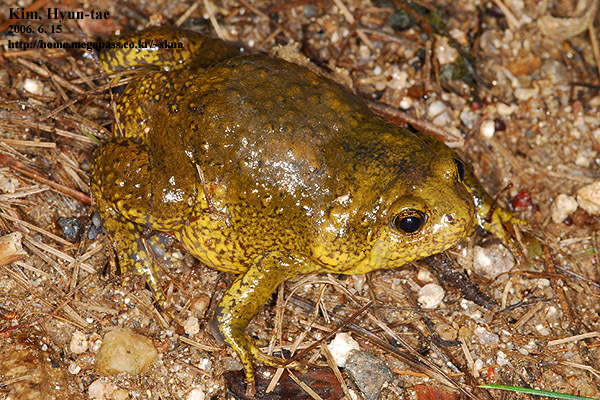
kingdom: Animalia
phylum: Chordata
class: Amphibia
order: Anura
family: Microhylidae
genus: Kaloula
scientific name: Kaloula borealis
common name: Boreal digging frog
